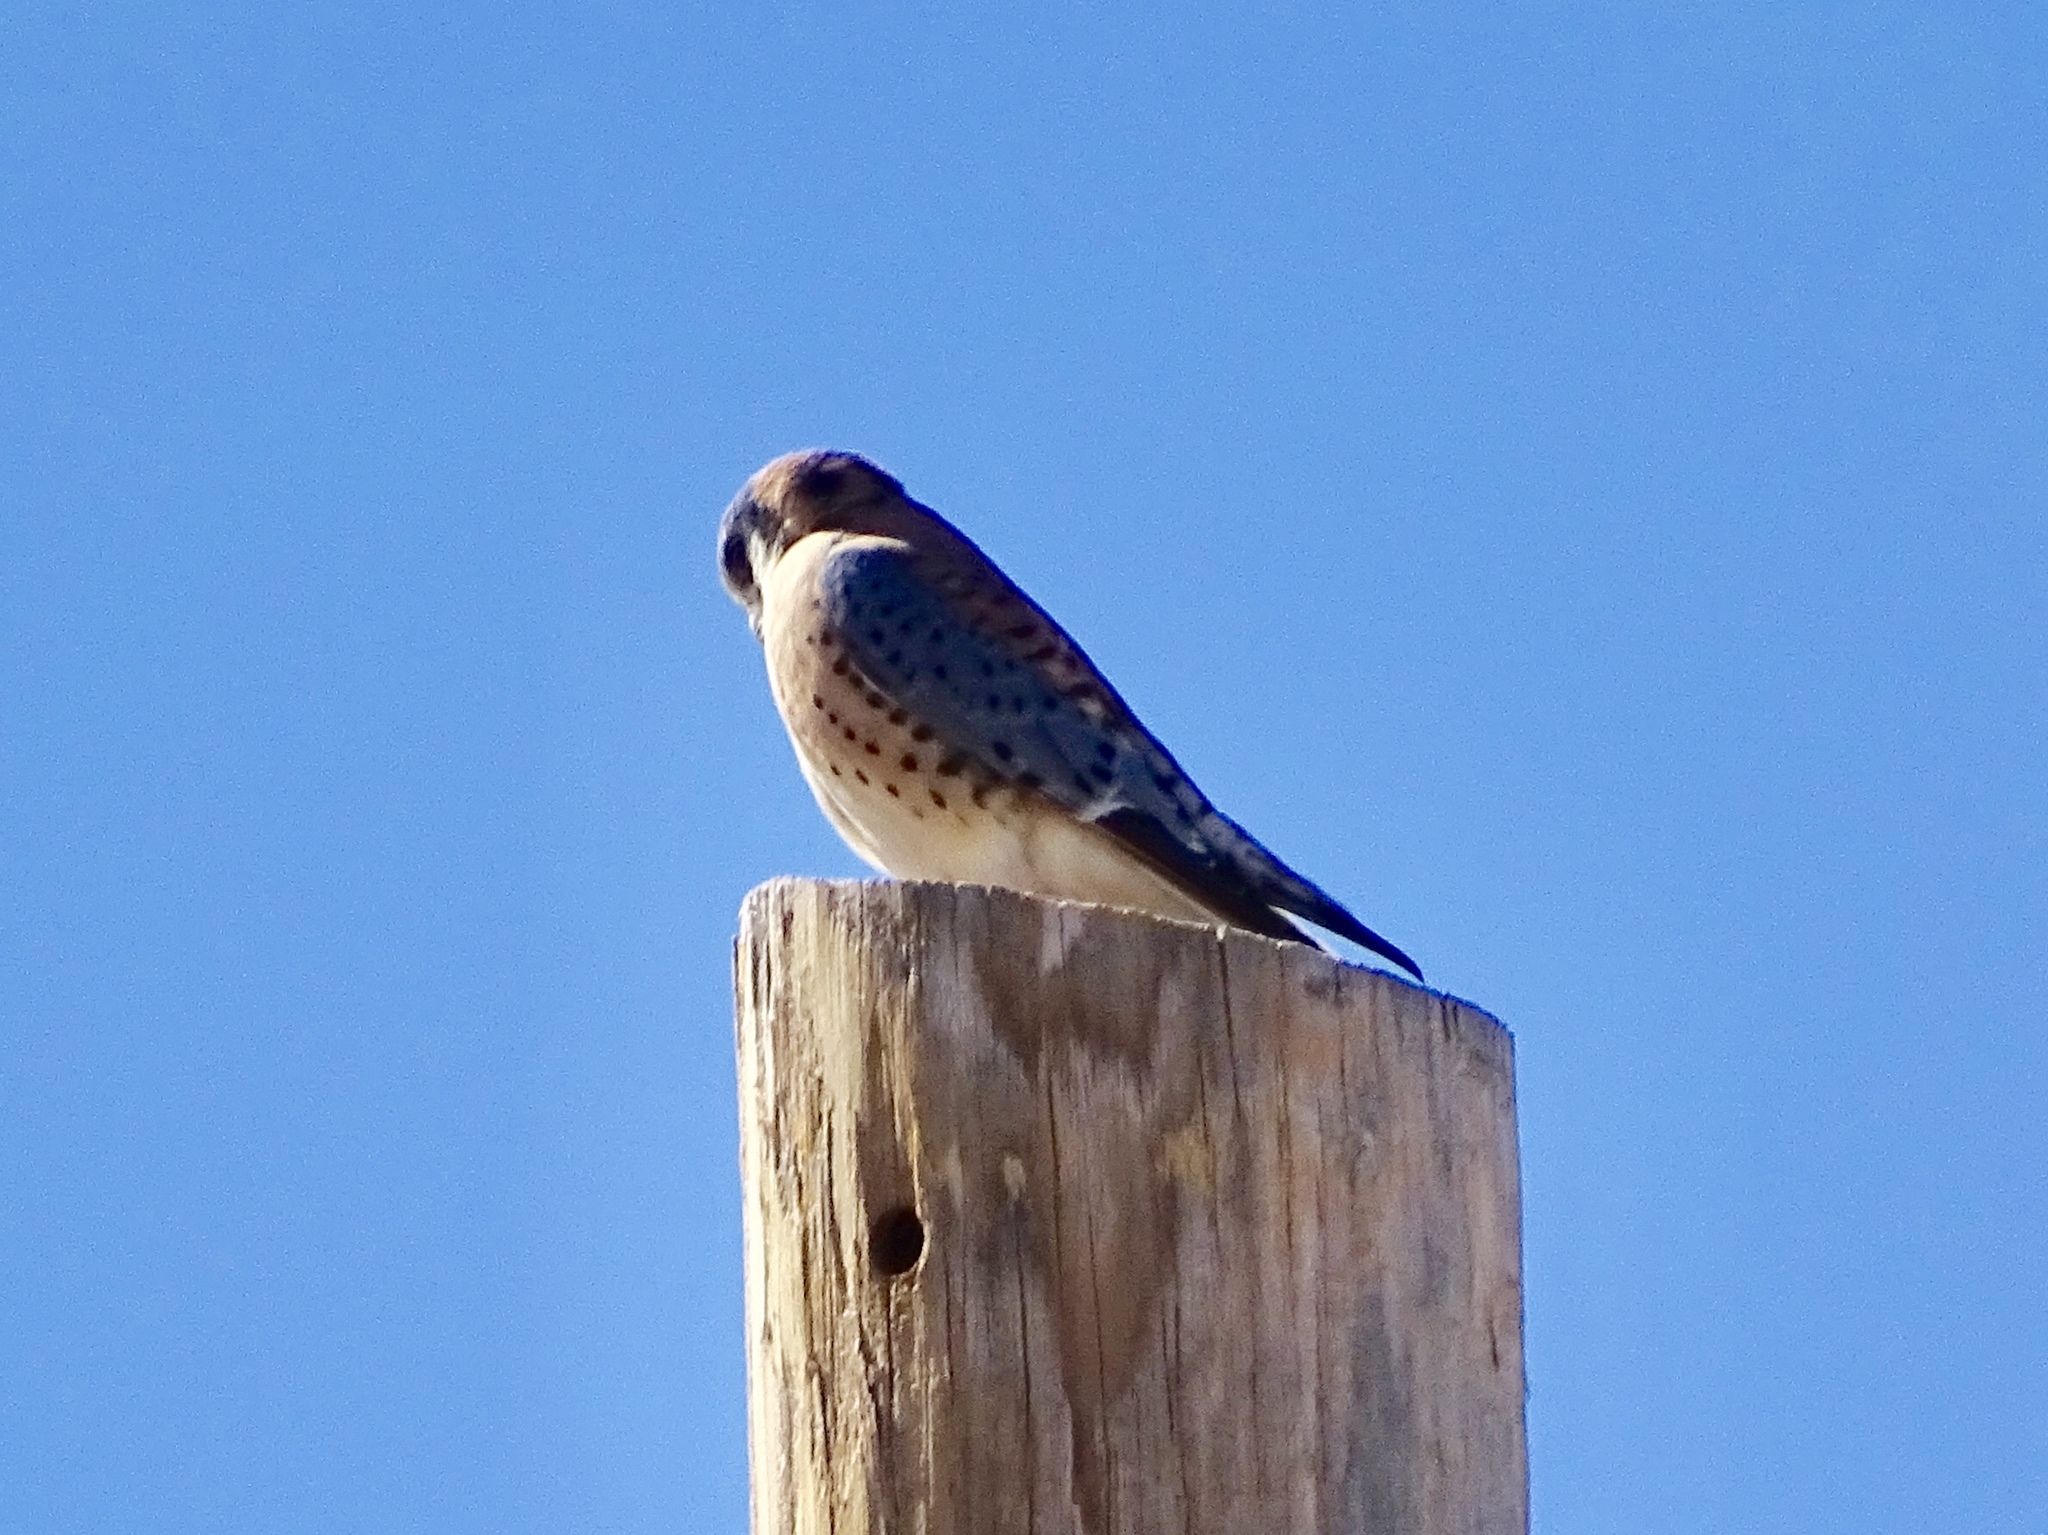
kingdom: Animalia
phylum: Chordata
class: Aves
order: Falconiformes
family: Falconidae
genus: Falco
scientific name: Falco sparverius
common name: American kestrel
